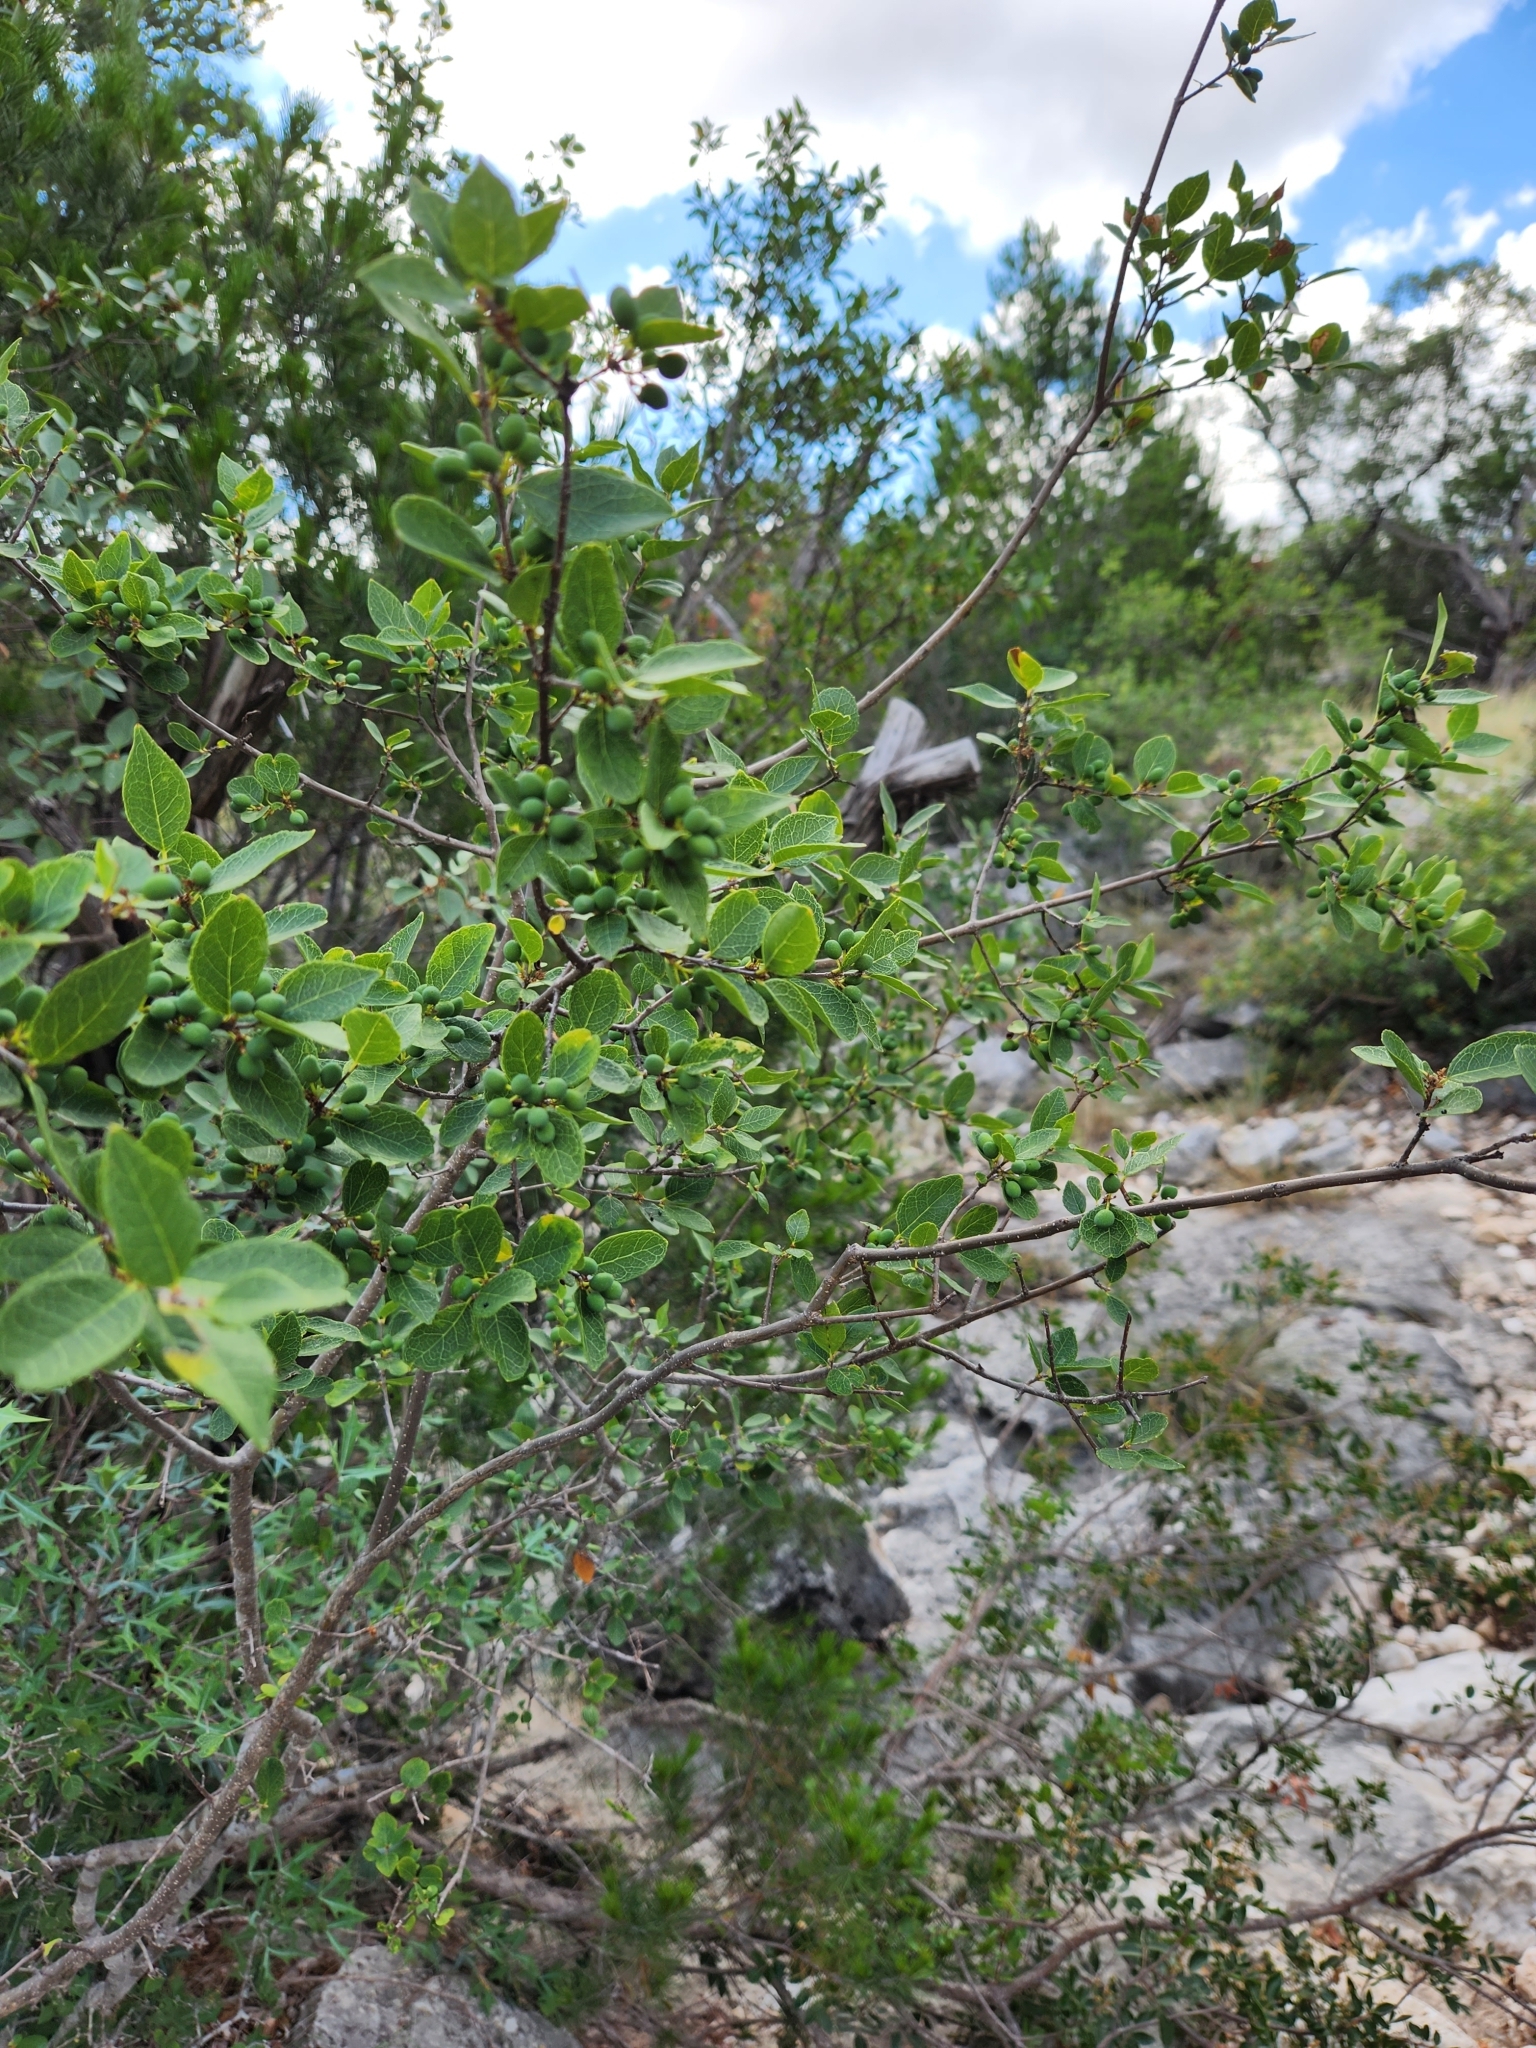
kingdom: Plantae
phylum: Tracheophyta
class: Magnoliopsida
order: Lamiales
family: Oleaceae
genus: Forestiera
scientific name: Forestiera reticulata
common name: Netleaf swamp-privet
